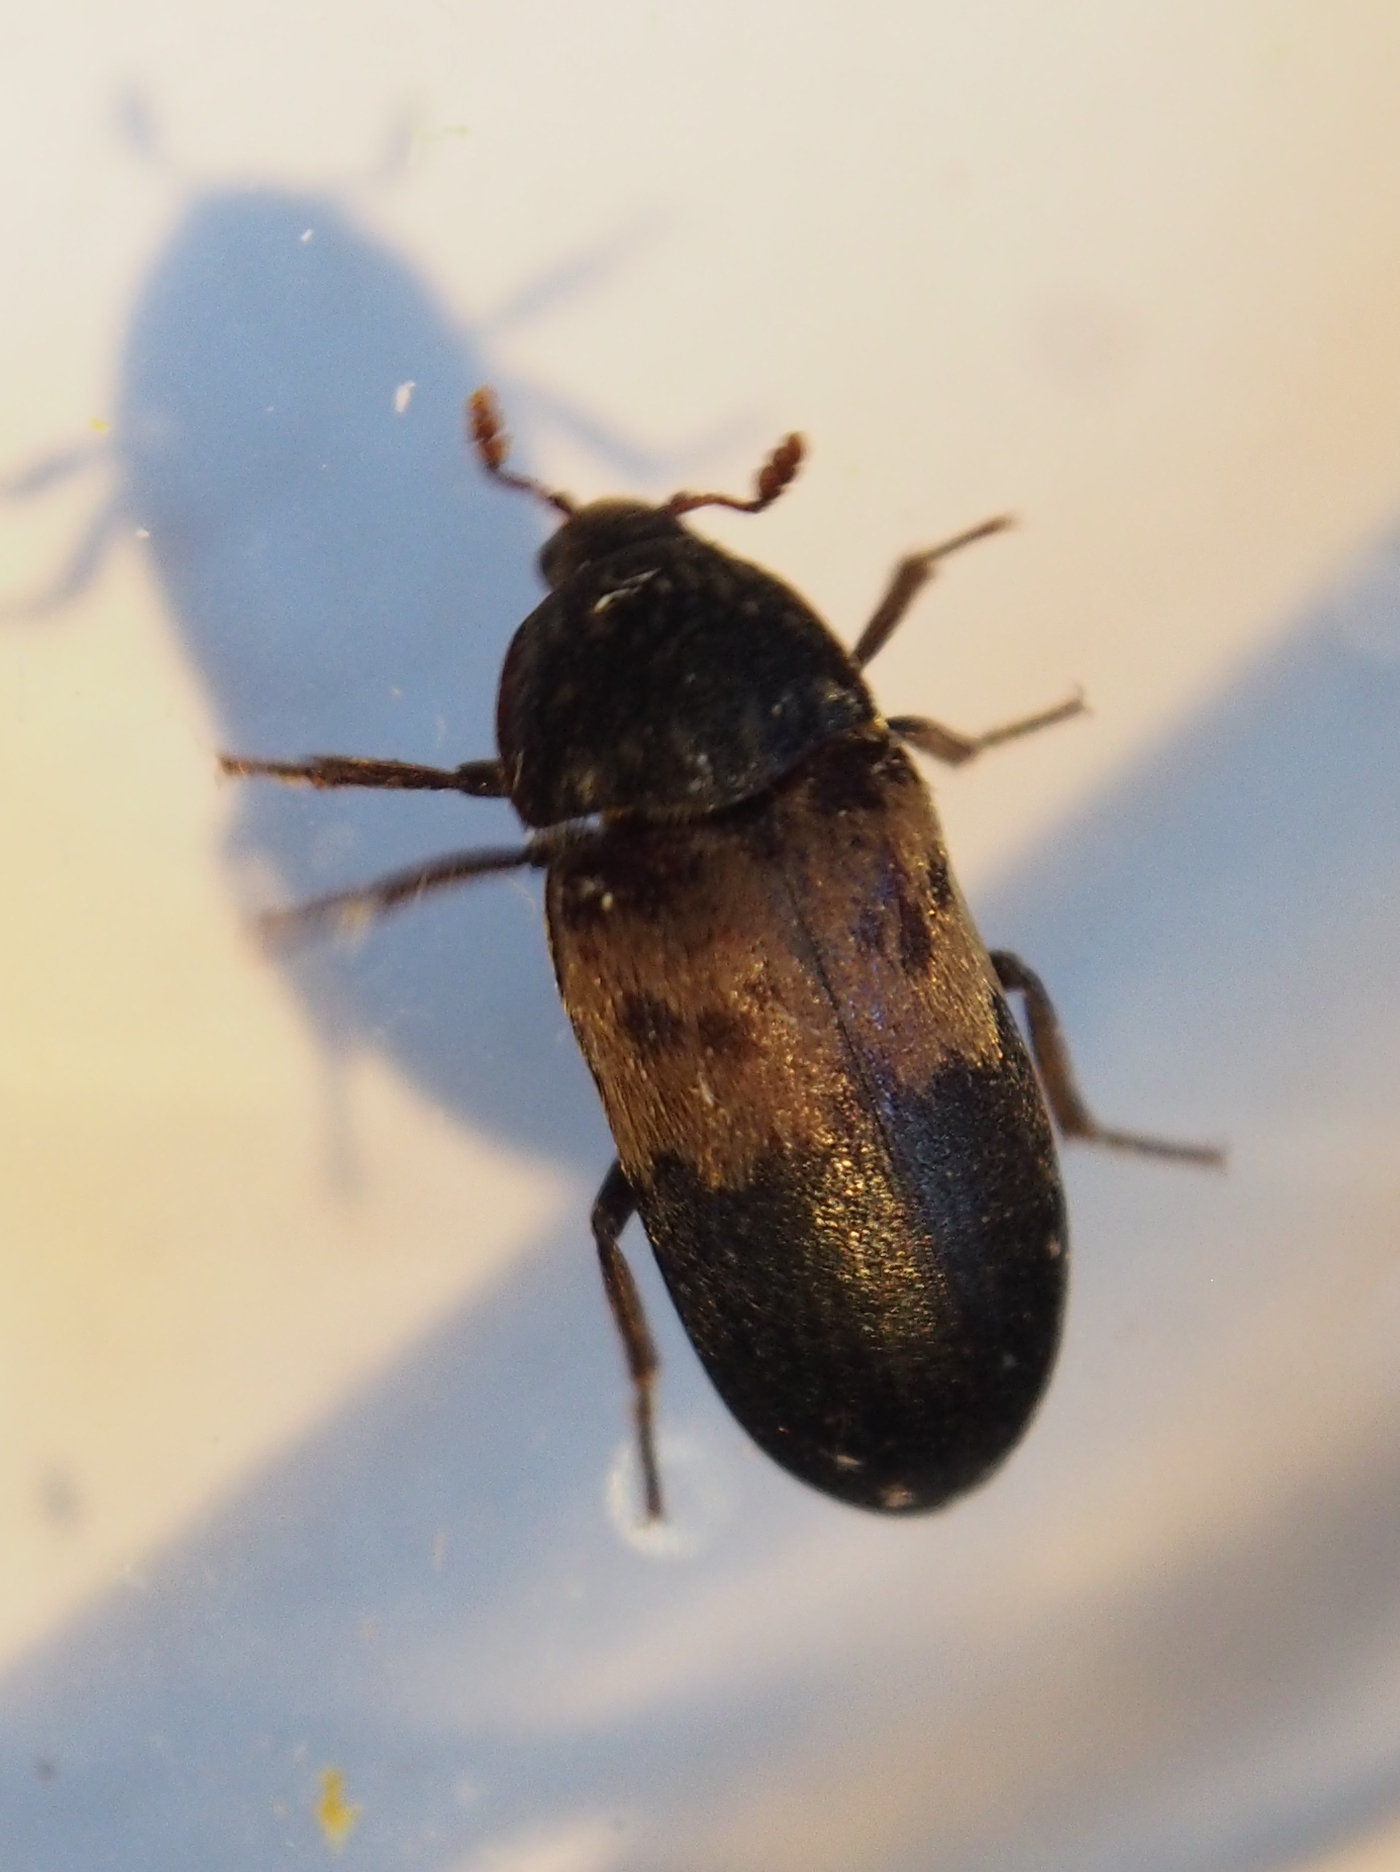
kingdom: Animalia
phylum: Arthropoda
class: Insecta
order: Coleoptera
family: Dermestidae
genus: Dermestes
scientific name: Dermestes lardarius
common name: Larder beetle
